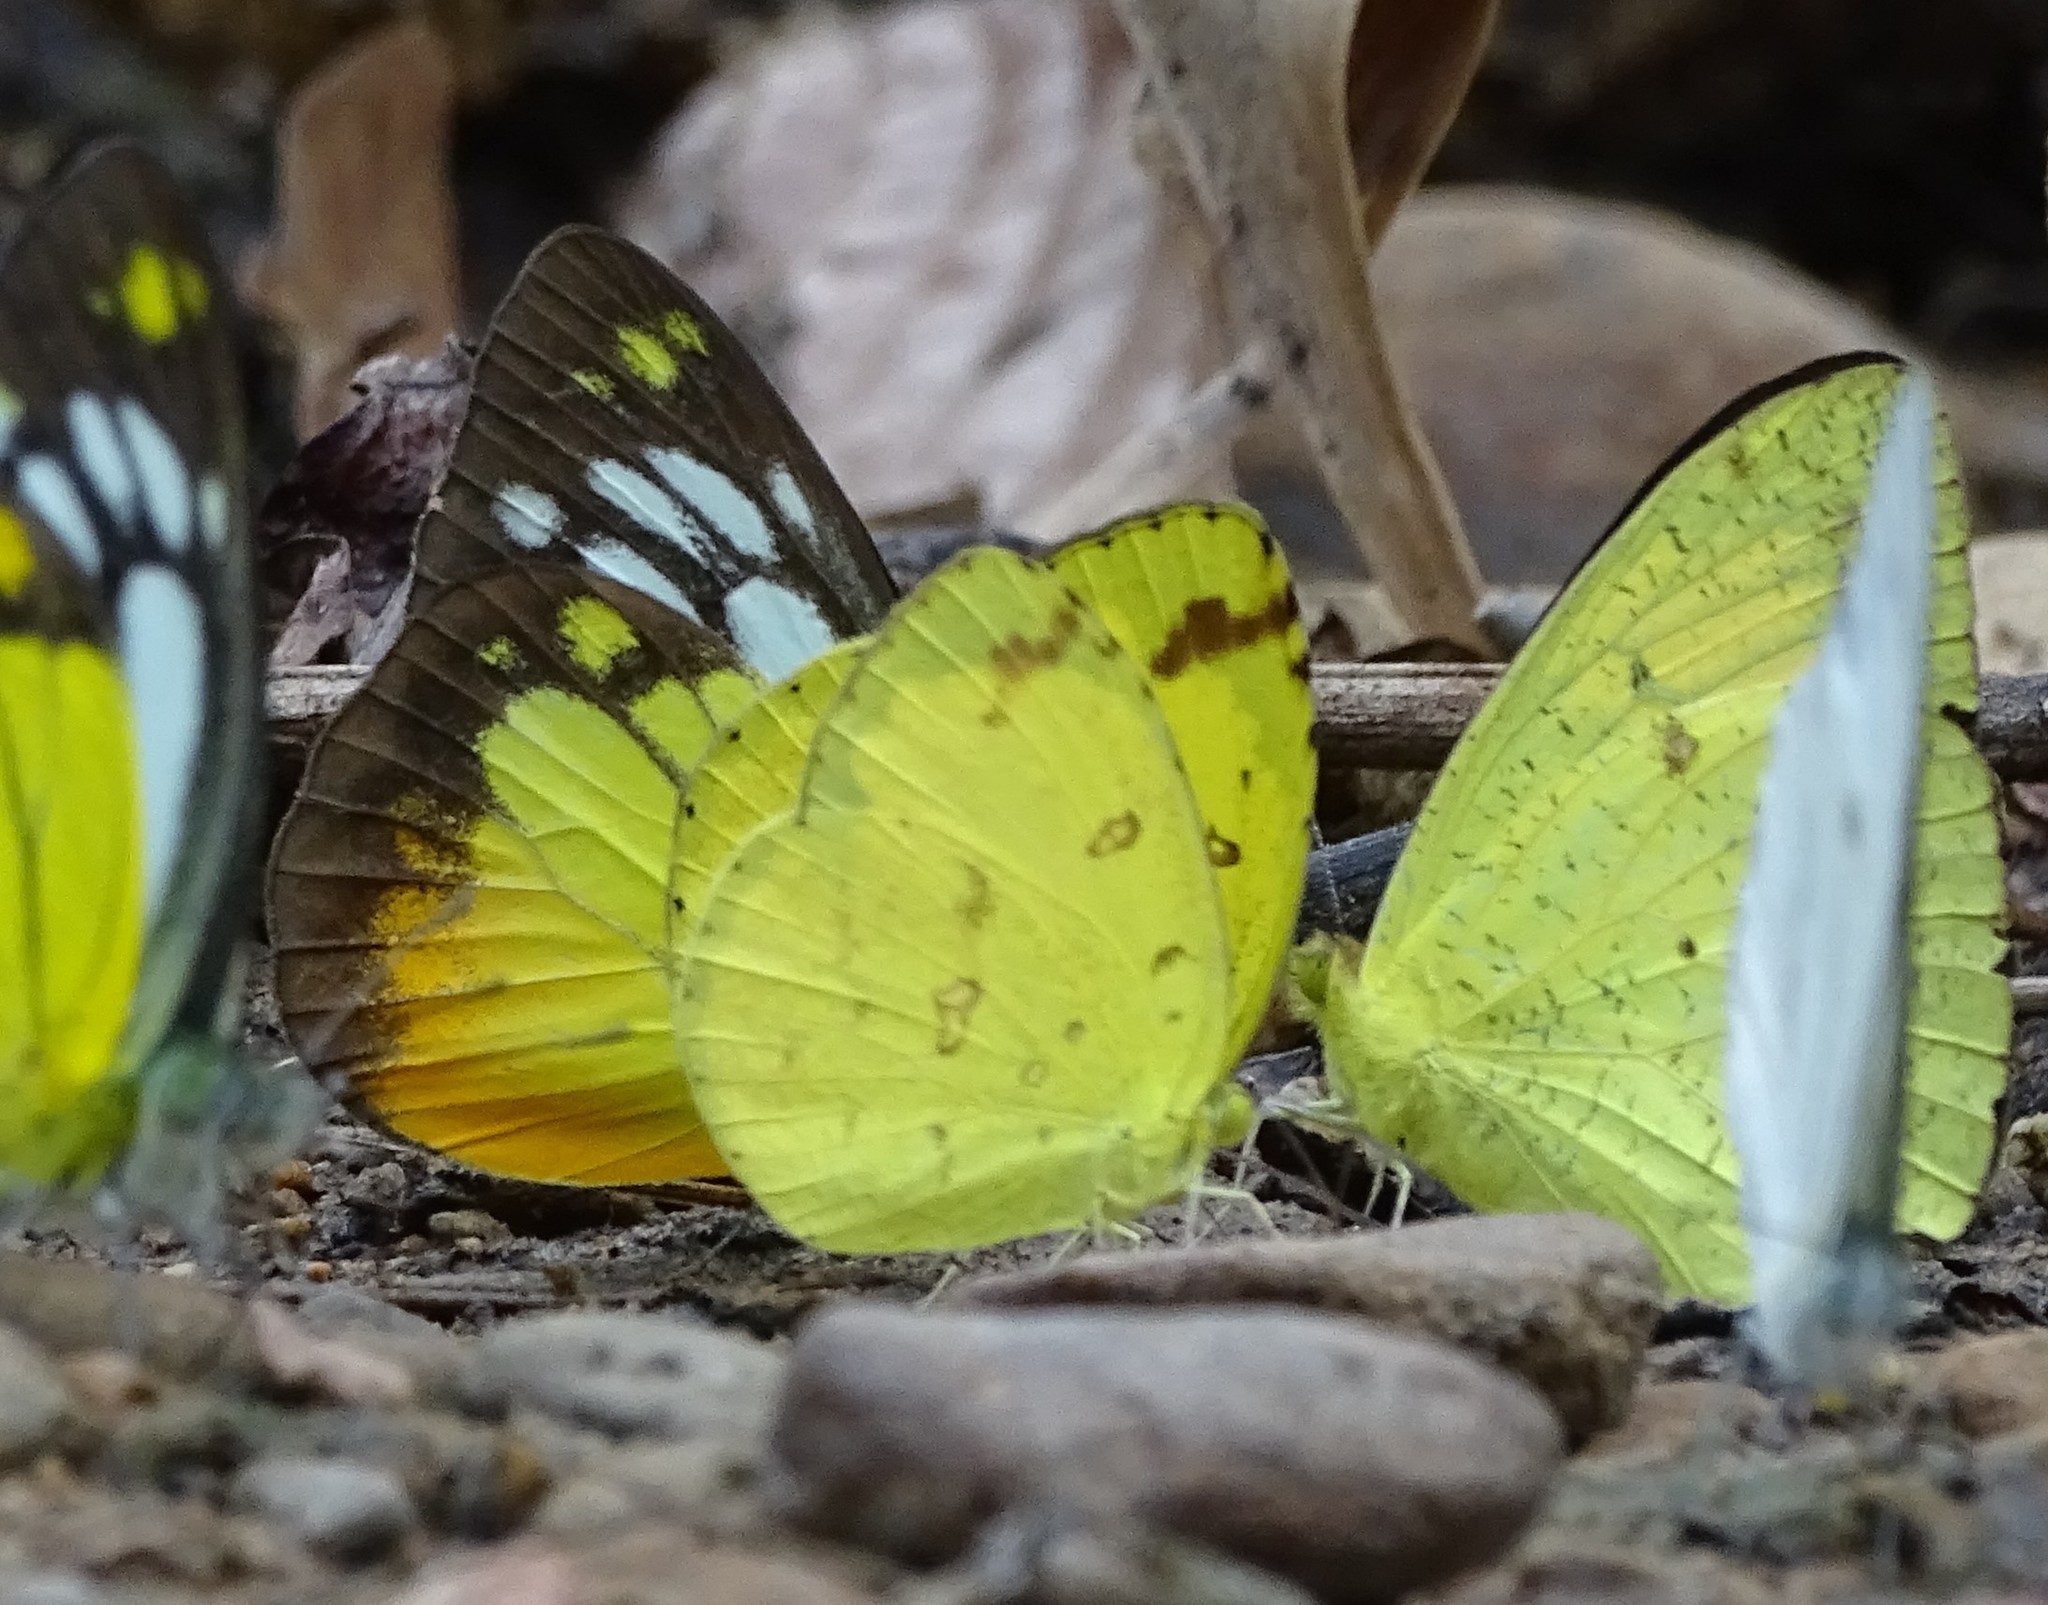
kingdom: Animalia
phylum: Arthropoda
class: Insecta
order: Lepidoptera
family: Pieridae
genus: Eurema
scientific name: Eurema hecabe
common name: Pale grass yellow
